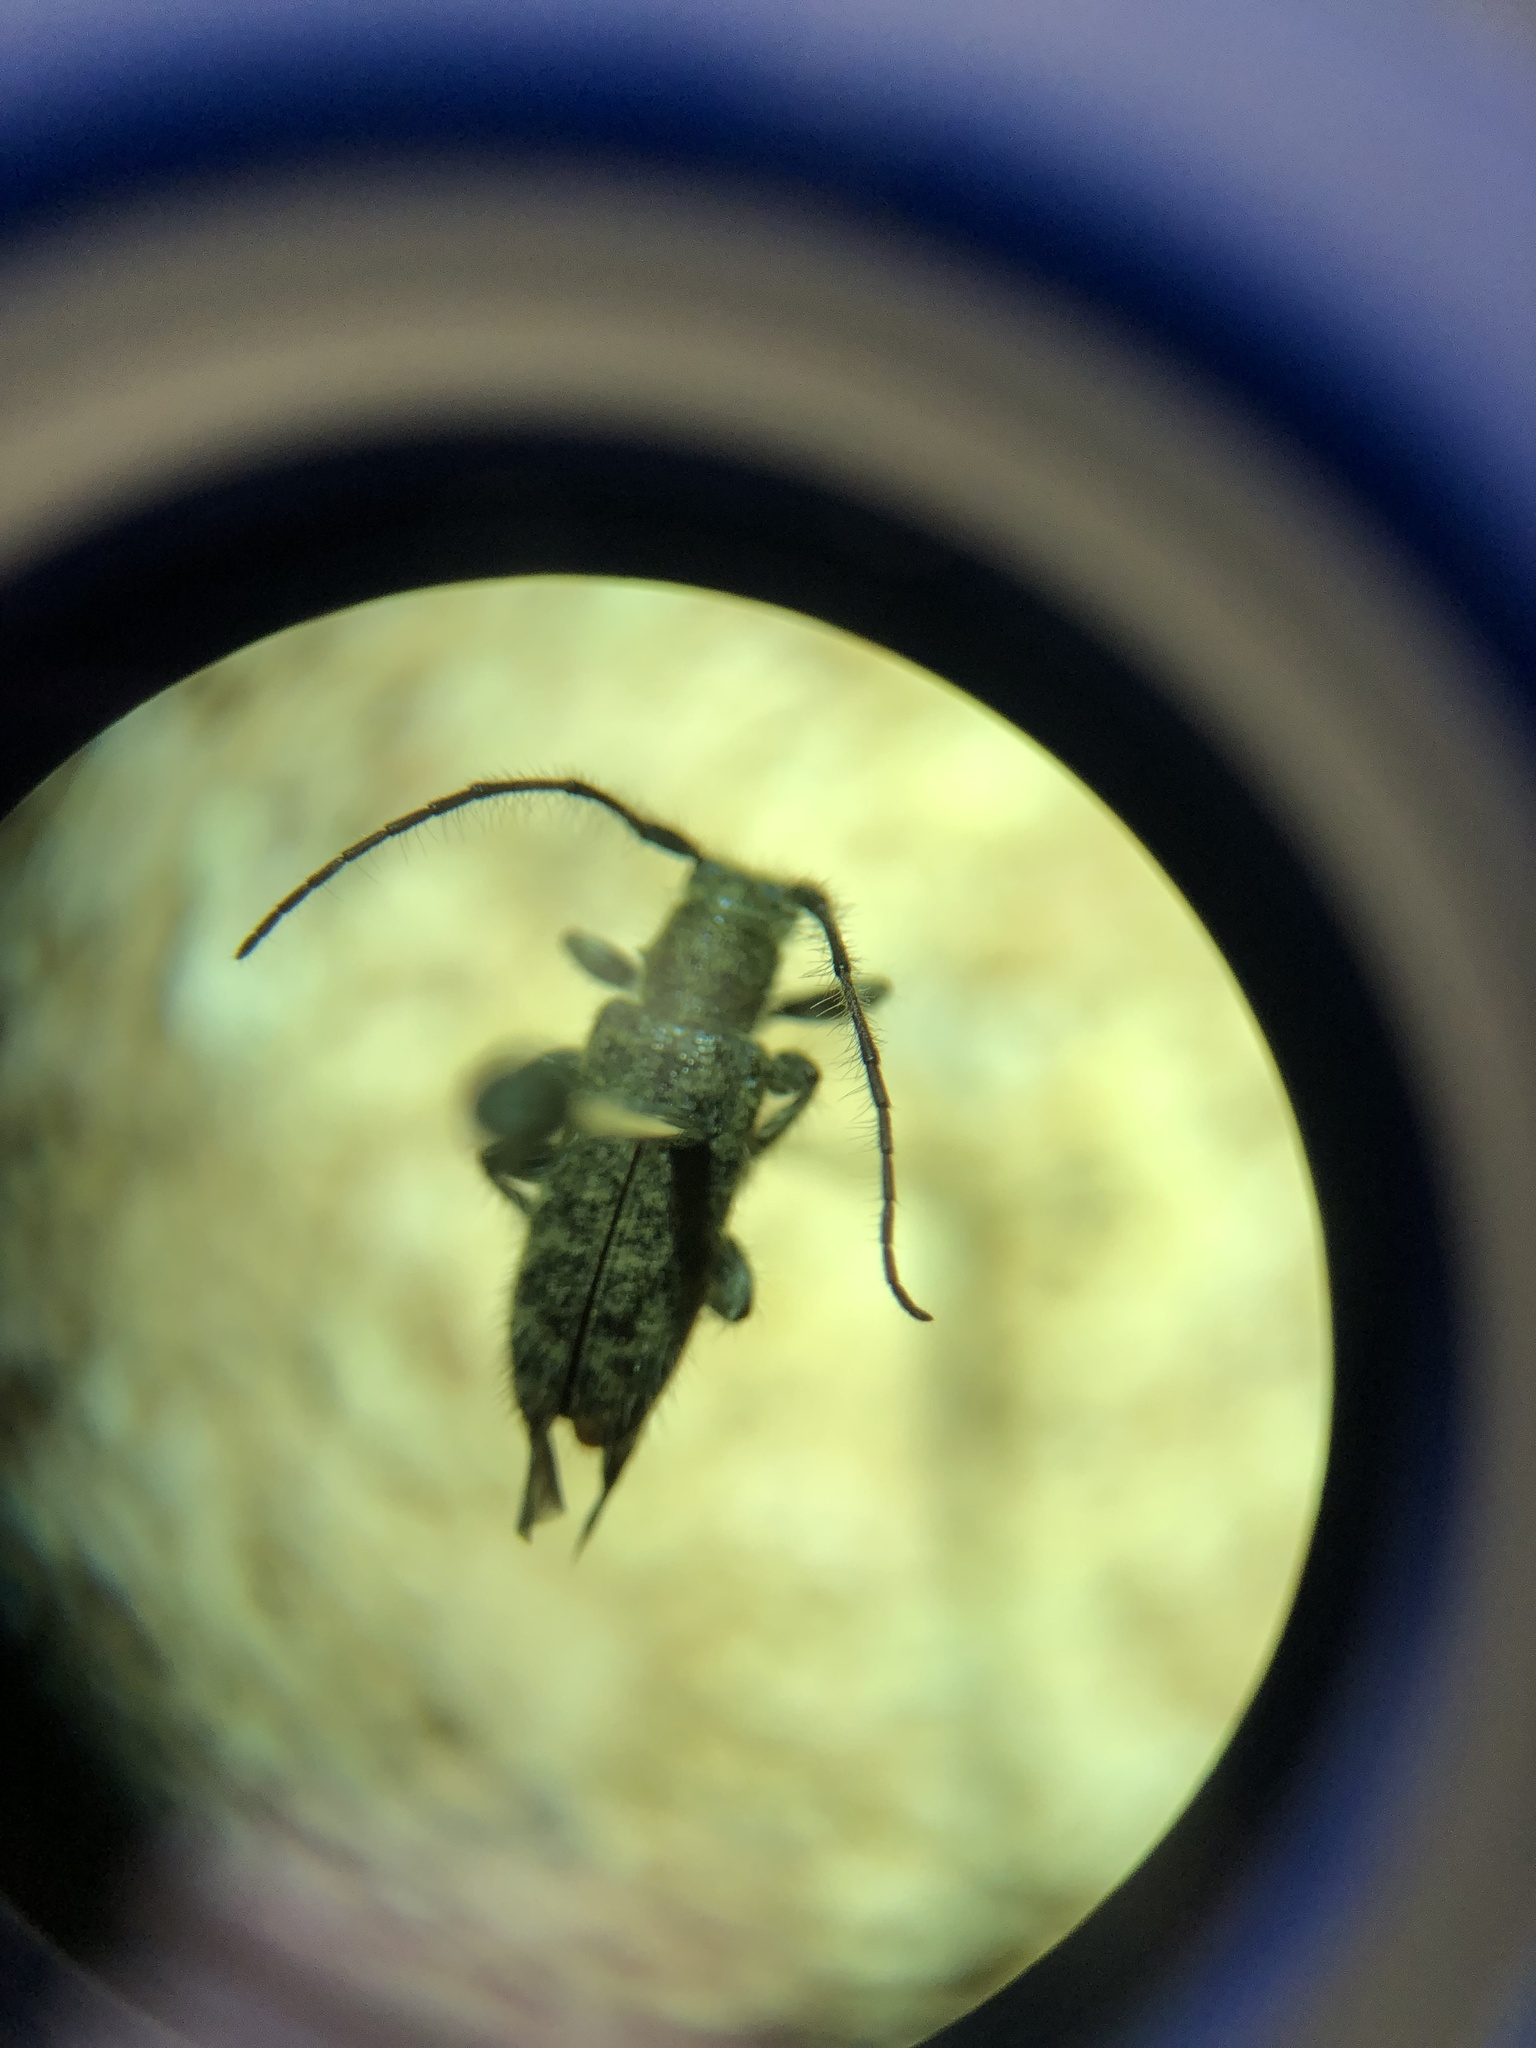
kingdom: Animalia
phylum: Arthropoda
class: Insecta
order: Coleoptera
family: Cerambycidae
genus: Eupogonius
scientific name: Eupogonius pauper
